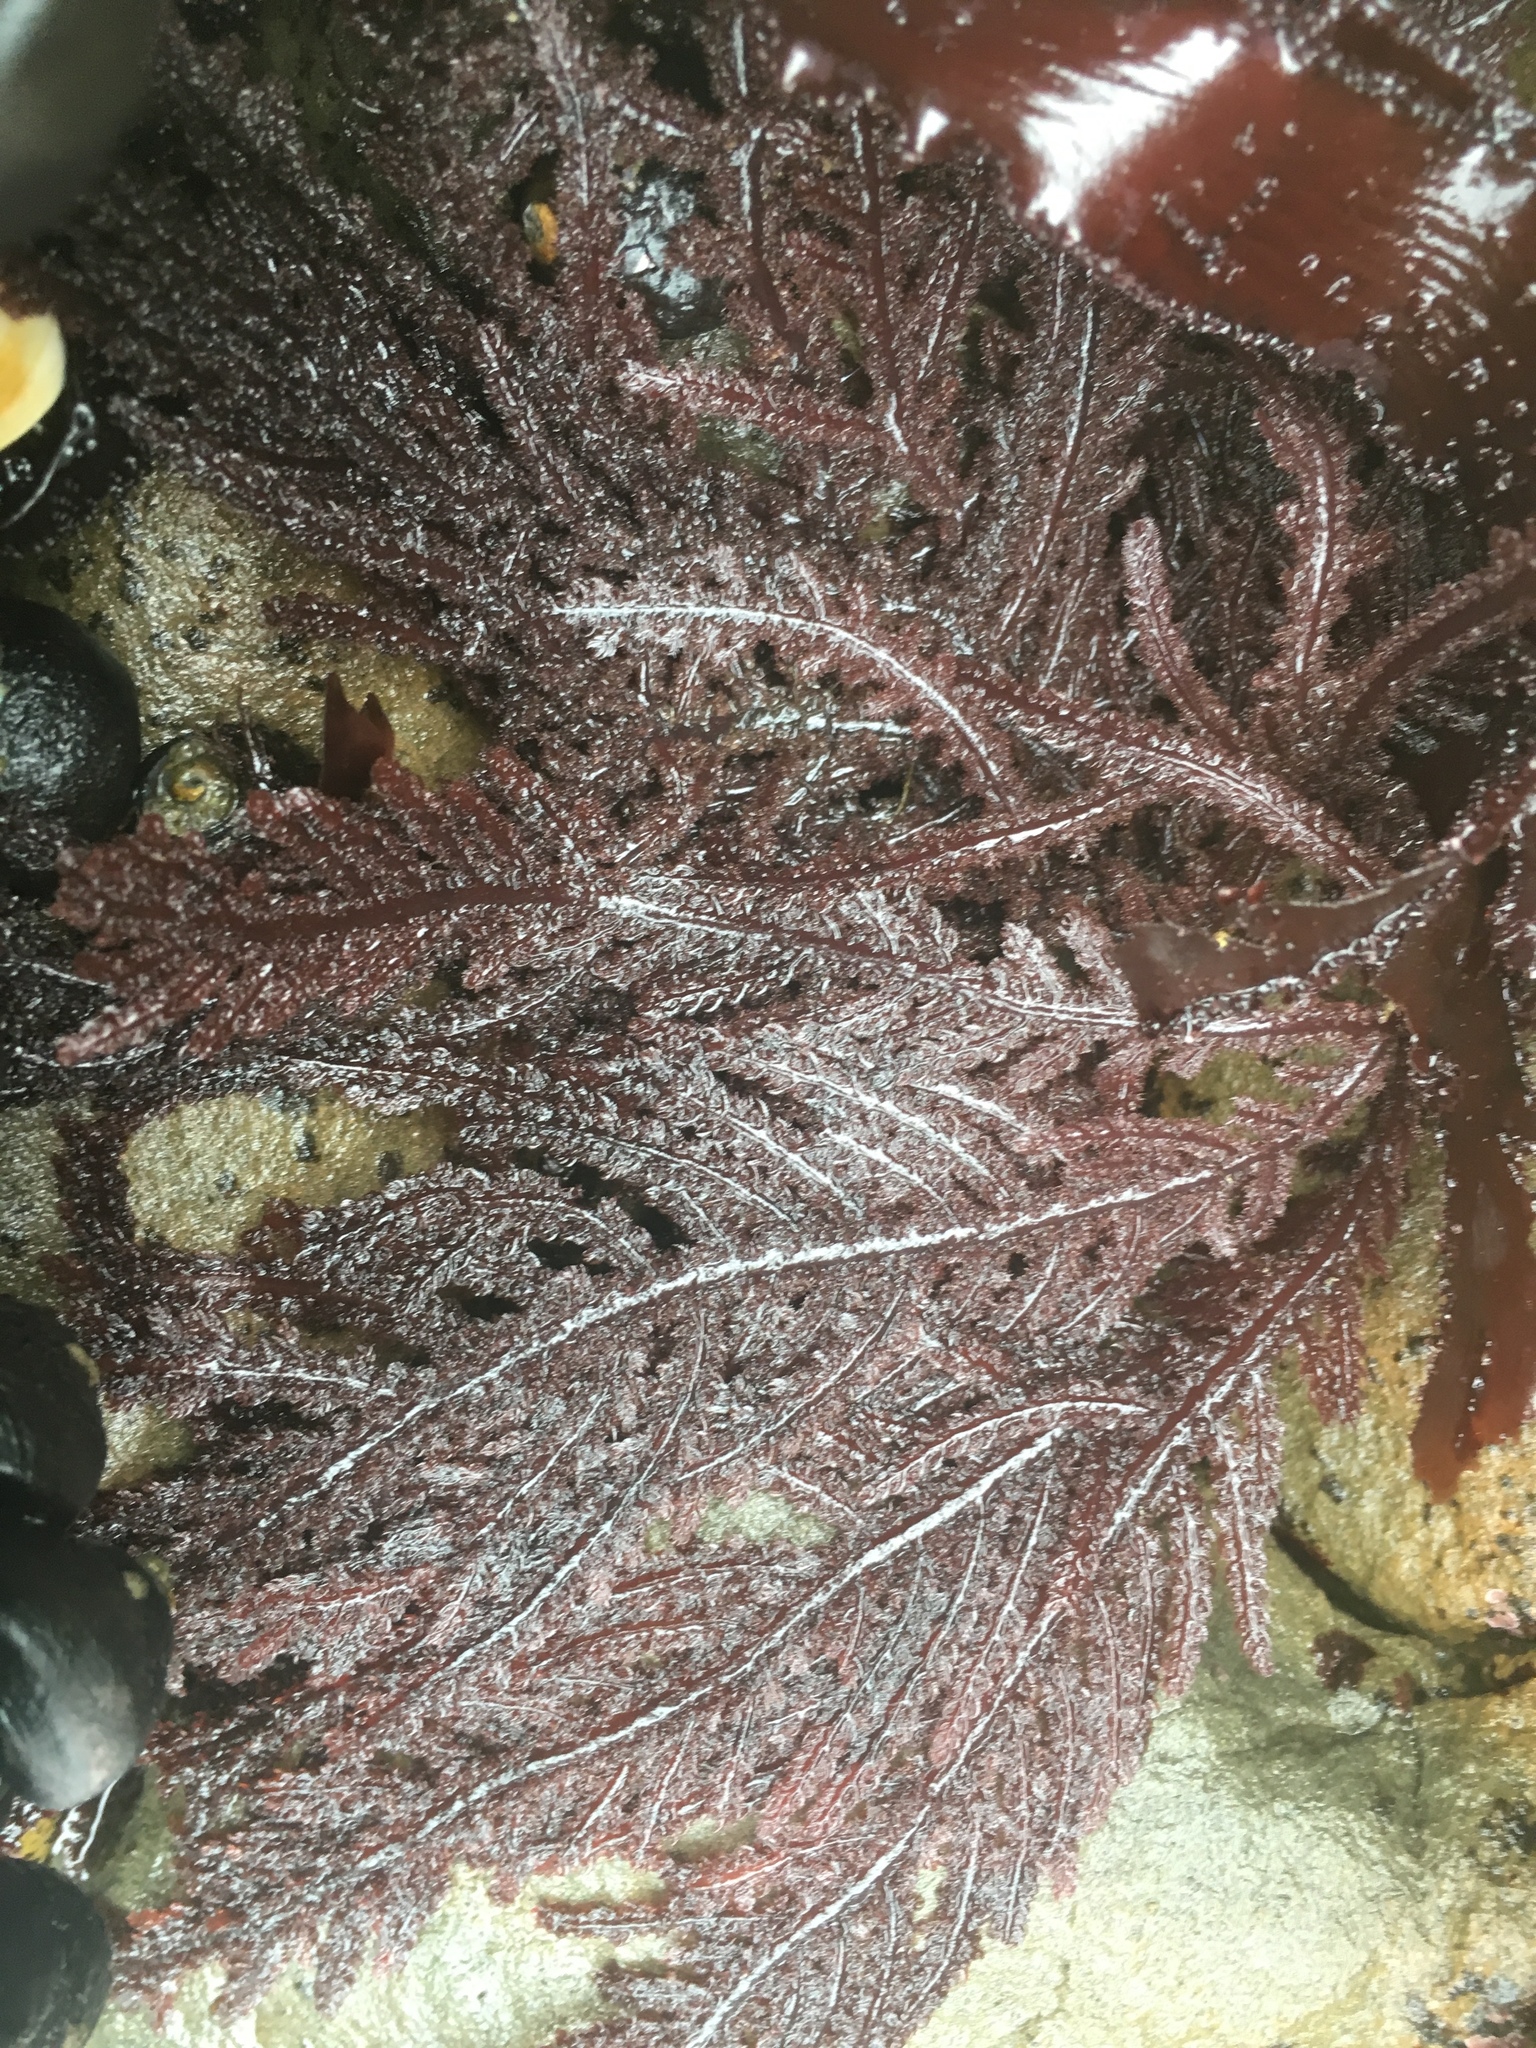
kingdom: Plantae
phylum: Rhodophyta
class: Florideophyceae
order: Ceramiales
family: Wrangeliaceae
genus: Neoptilota
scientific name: Neoptilota densa
